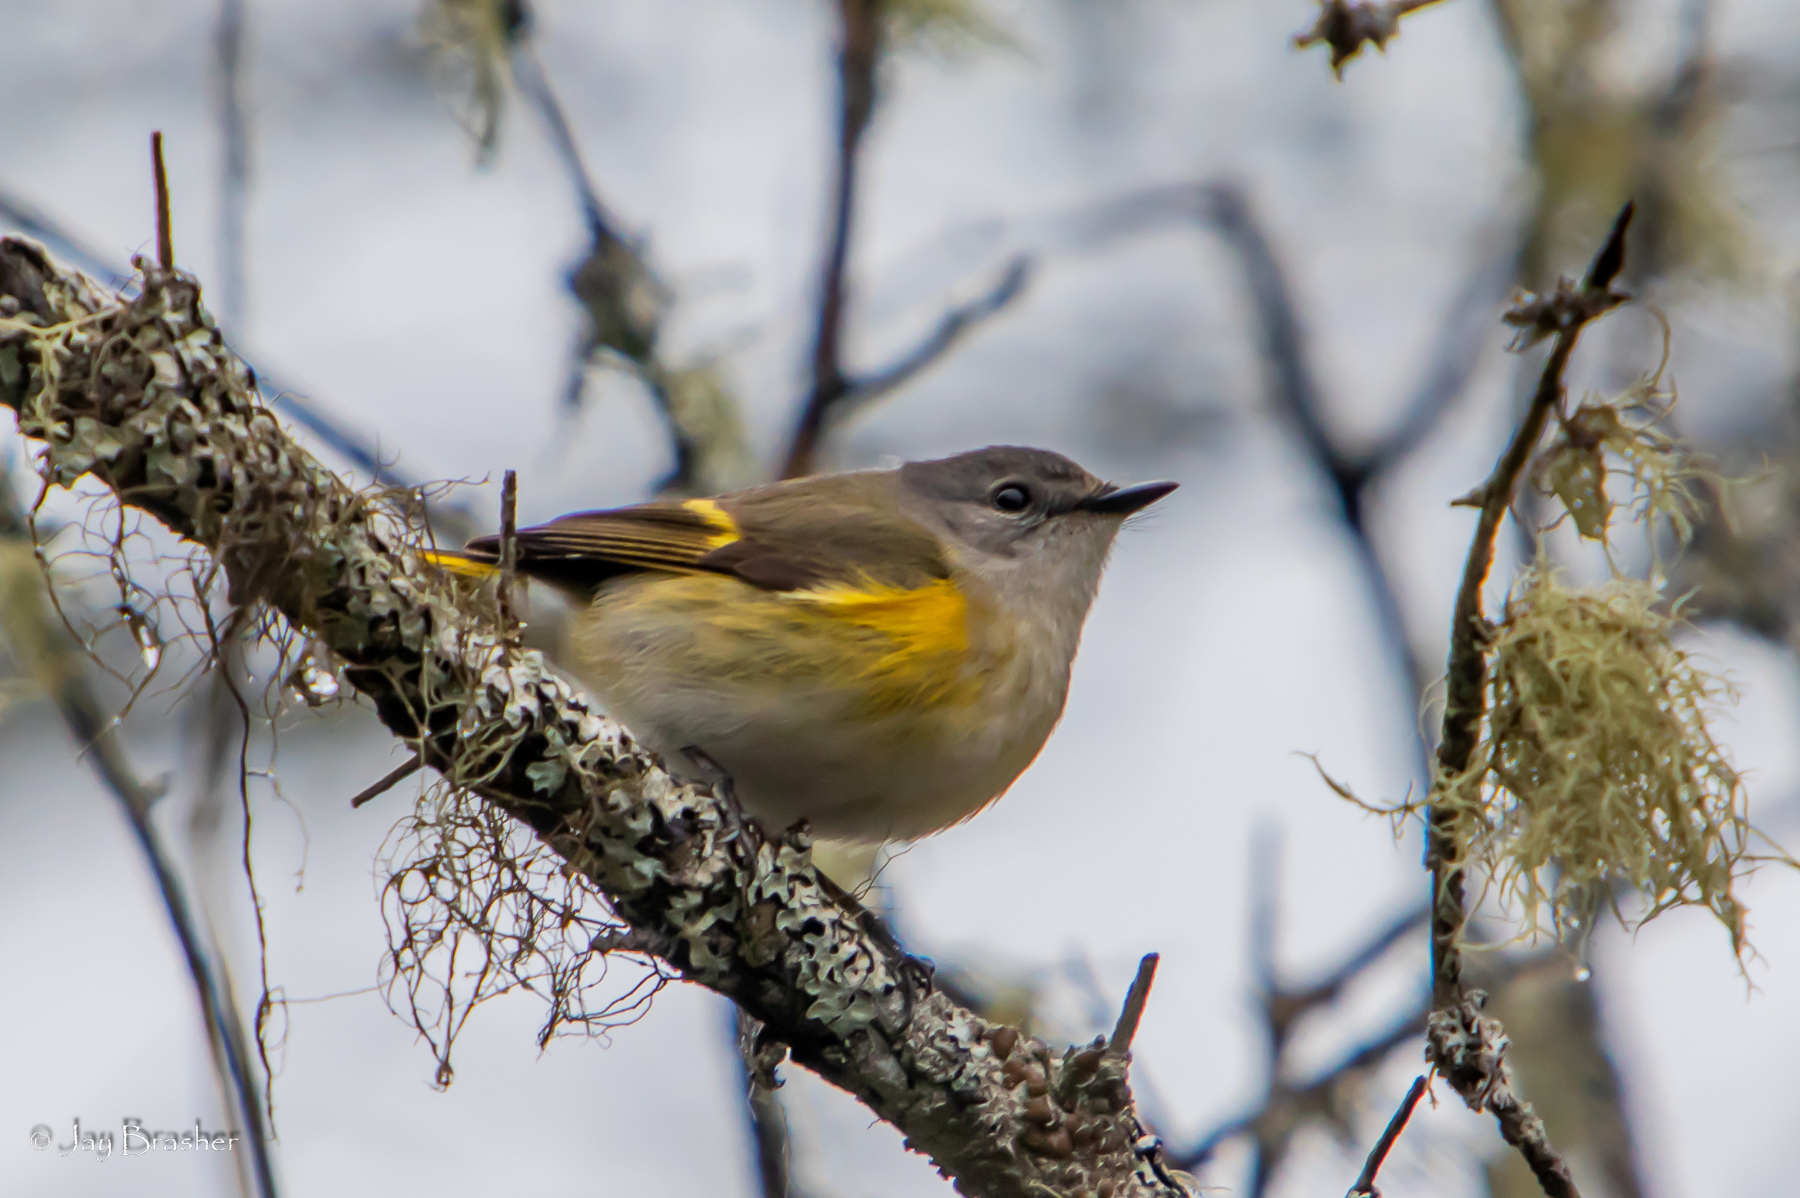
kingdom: Animalia
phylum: Chordata
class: Aves
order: Passeriformes
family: Parulidae
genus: Setophaga
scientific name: Setophaga ruticilla
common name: American redstart
